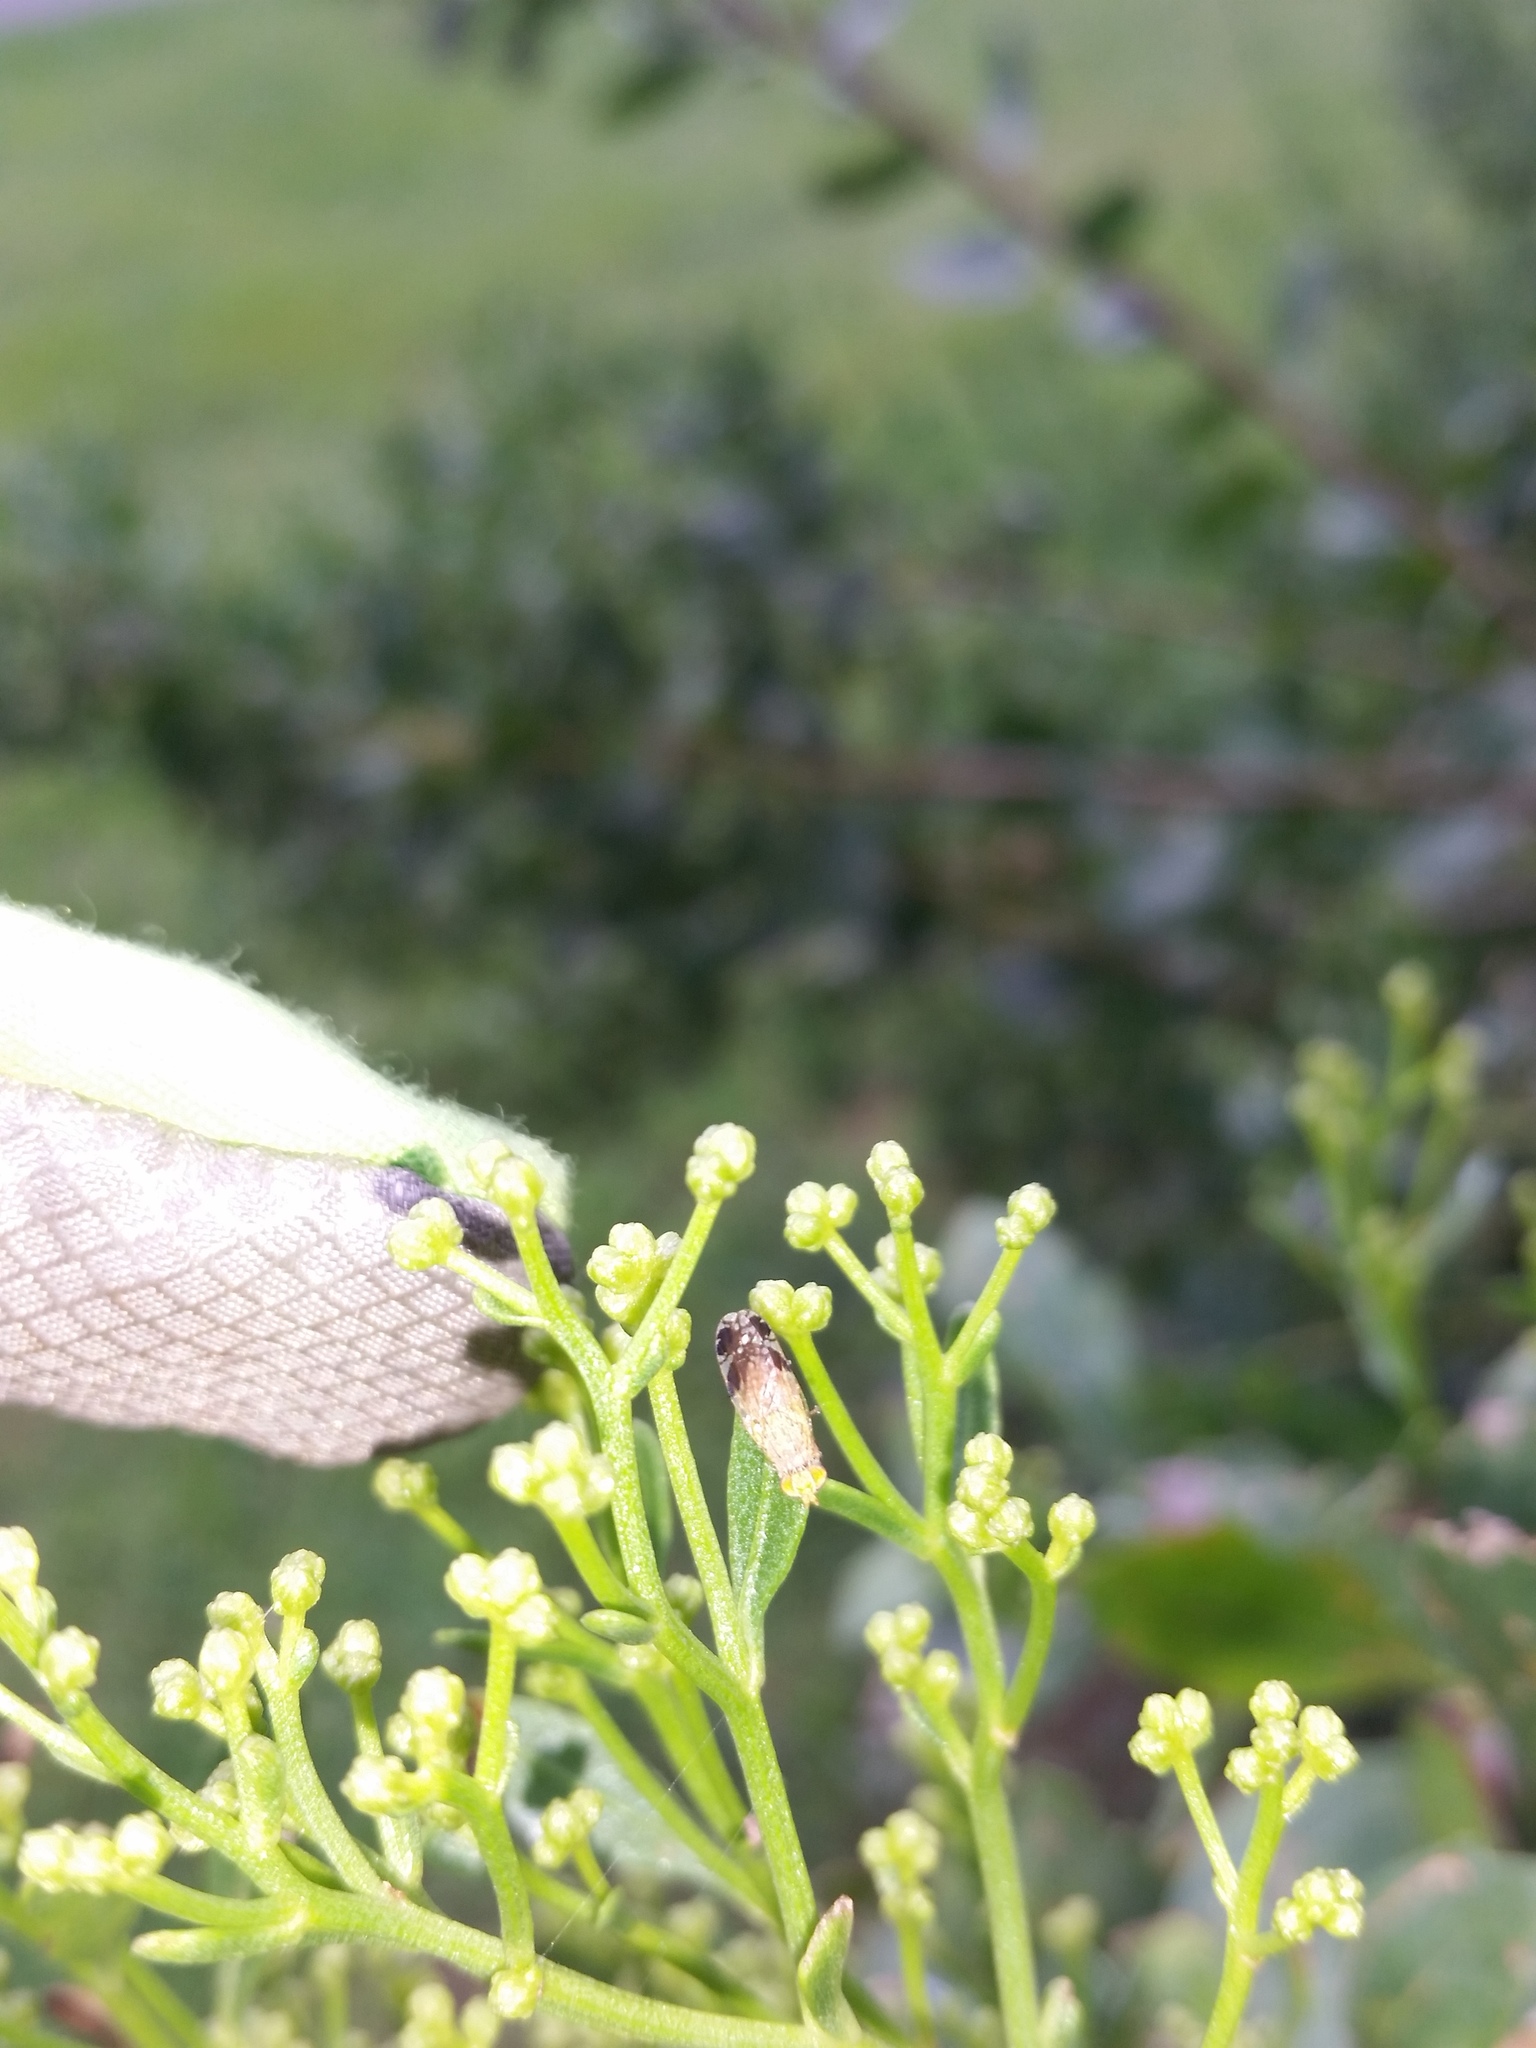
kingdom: Animalia
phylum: Arthropoda
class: Insecta
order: Diptera
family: Tephritidae
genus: Tephritis
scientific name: Tephritis subpura
